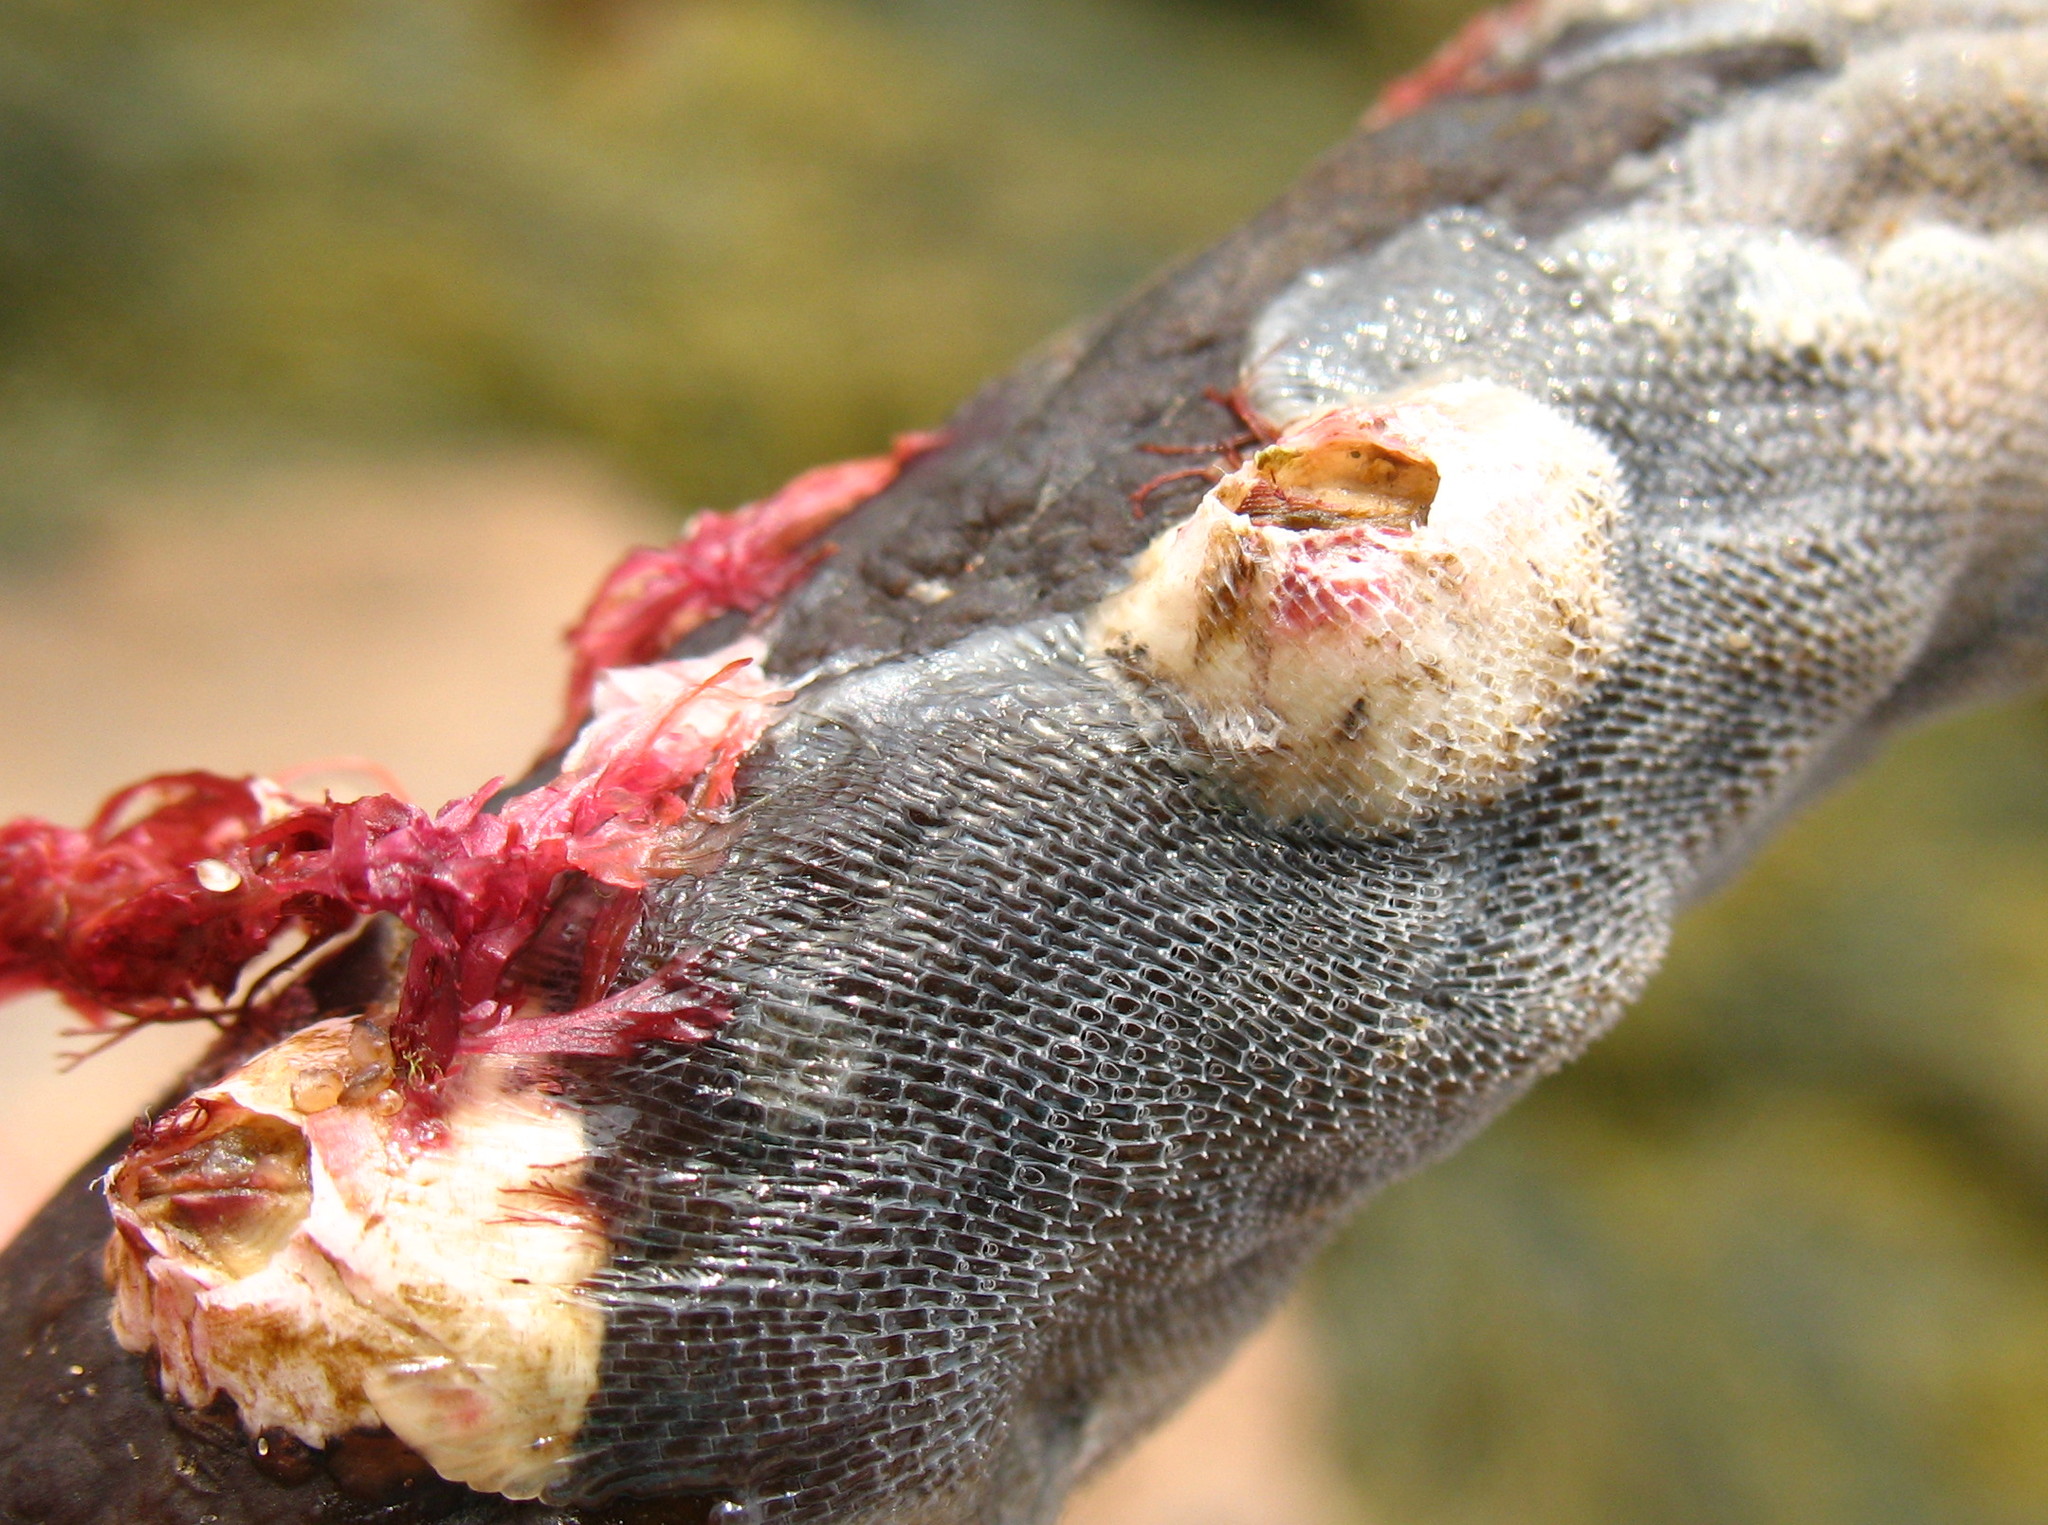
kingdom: Animalia
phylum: Arthropoda
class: Maxillopoda
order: Sessilia
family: Balanidae
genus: Balanus
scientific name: Balanus crenatus
